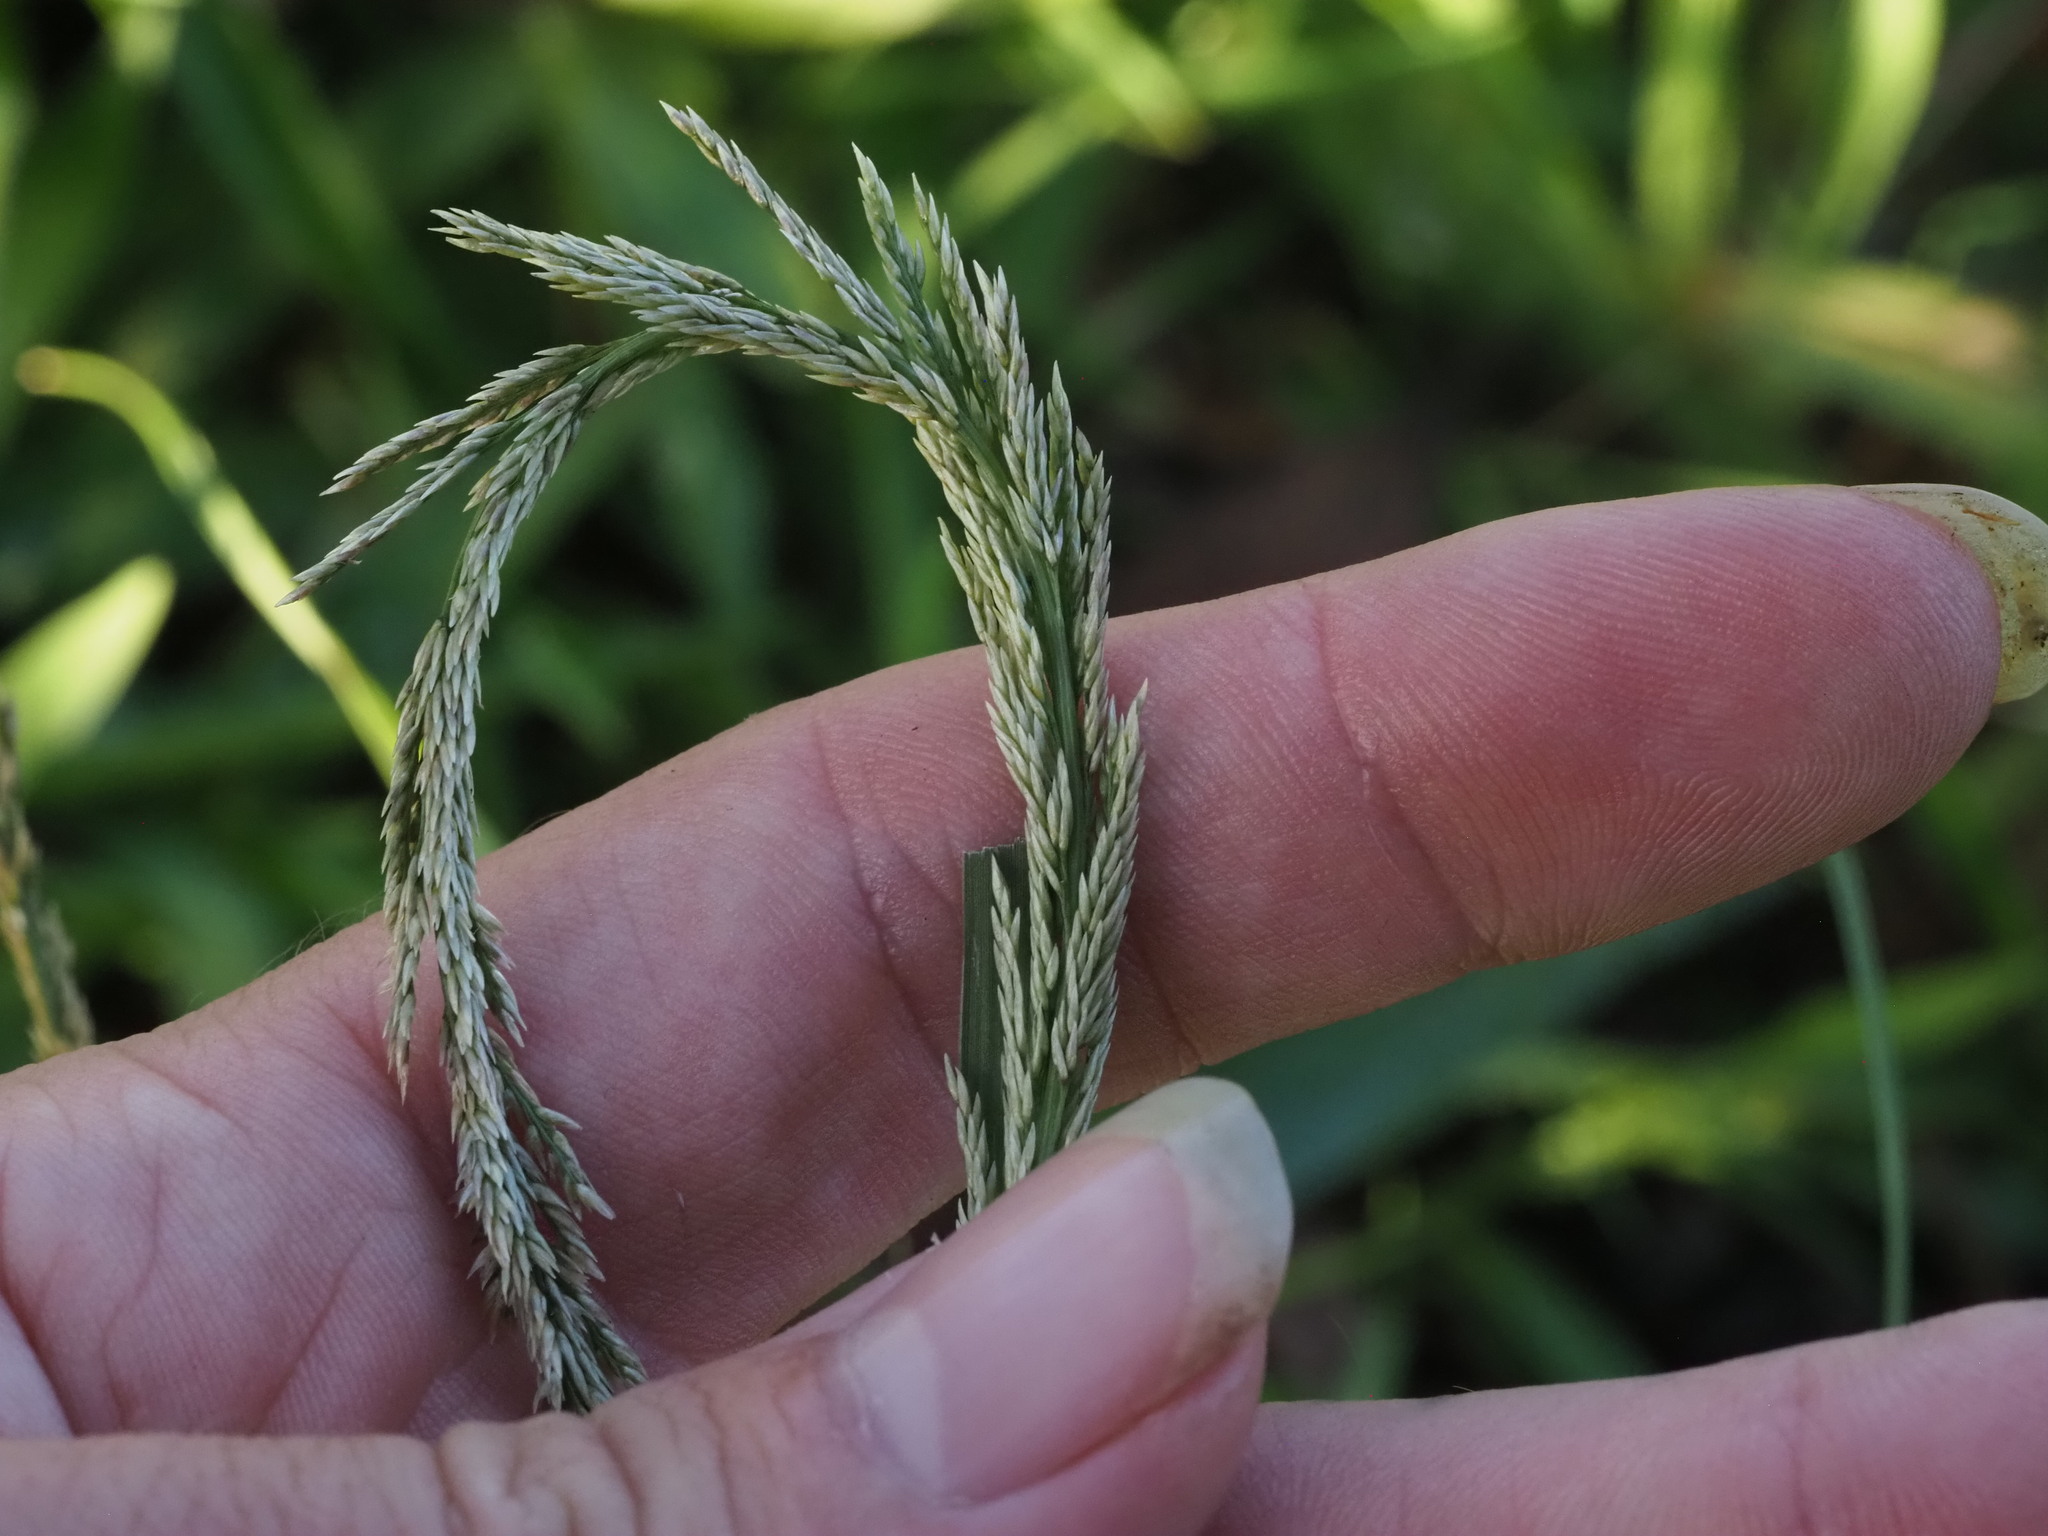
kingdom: Plantae
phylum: Tracheophyta
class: Liliopsida
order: Poales
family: Poaceae
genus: Sporobolus
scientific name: Sporobolus africanus
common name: African dropseed
